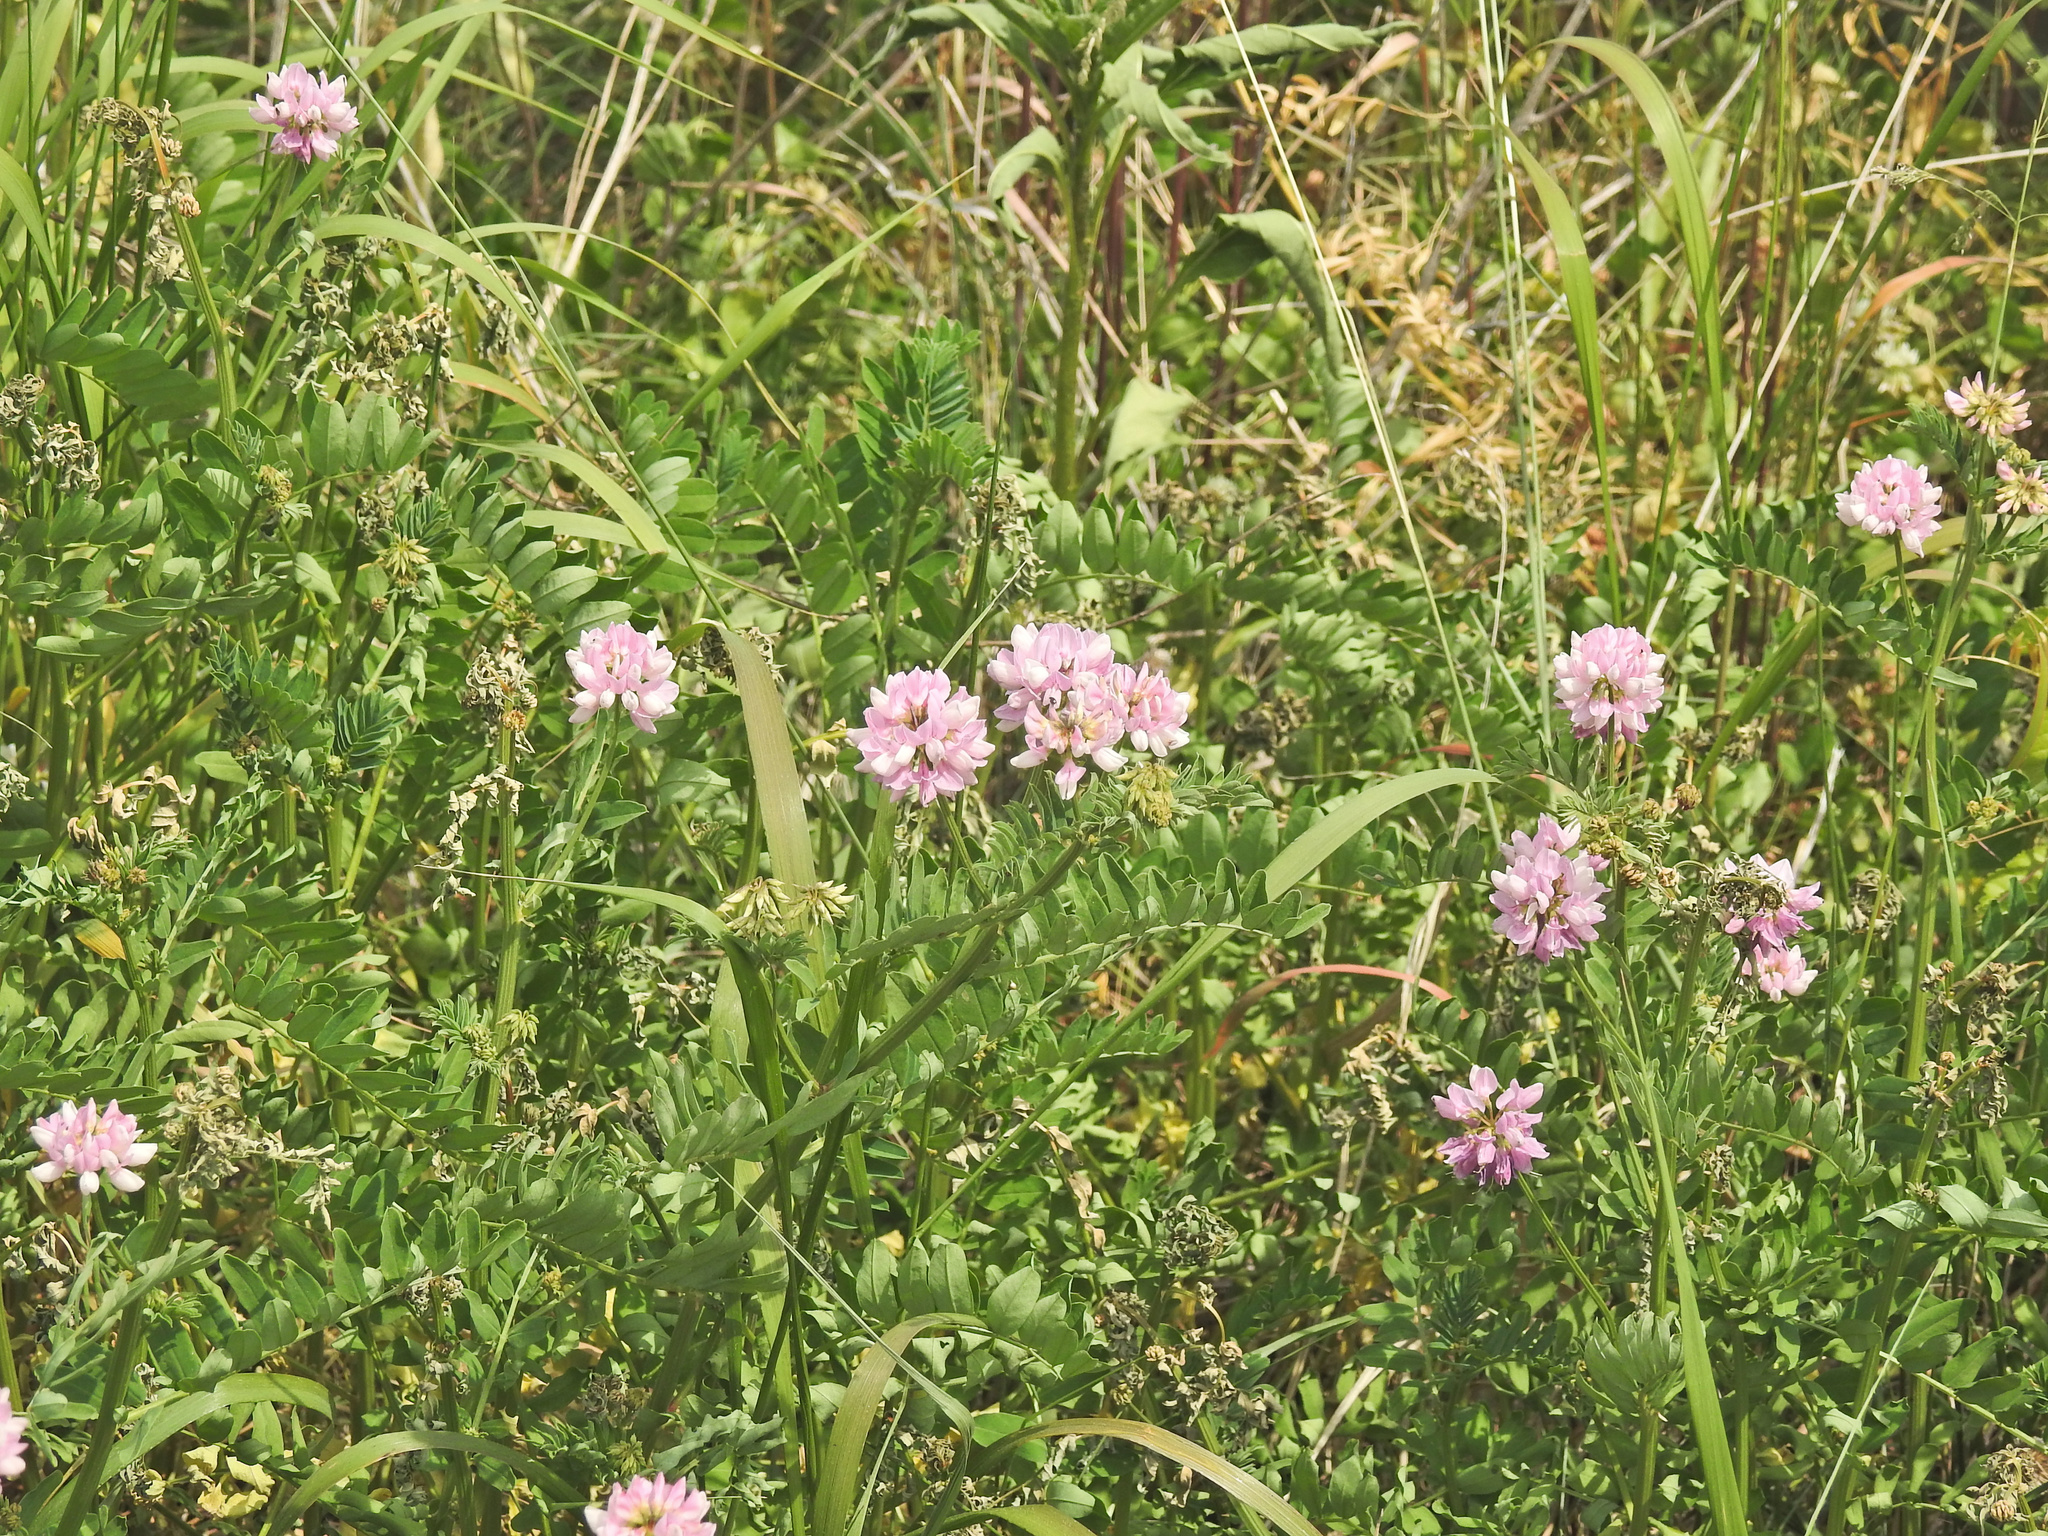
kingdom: Plantae
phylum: Tracheophyta
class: Magnoliopsida
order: Fabales
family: Fabaceae
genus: Coronilla
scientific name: Coronilla varia
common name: Crownvetch
